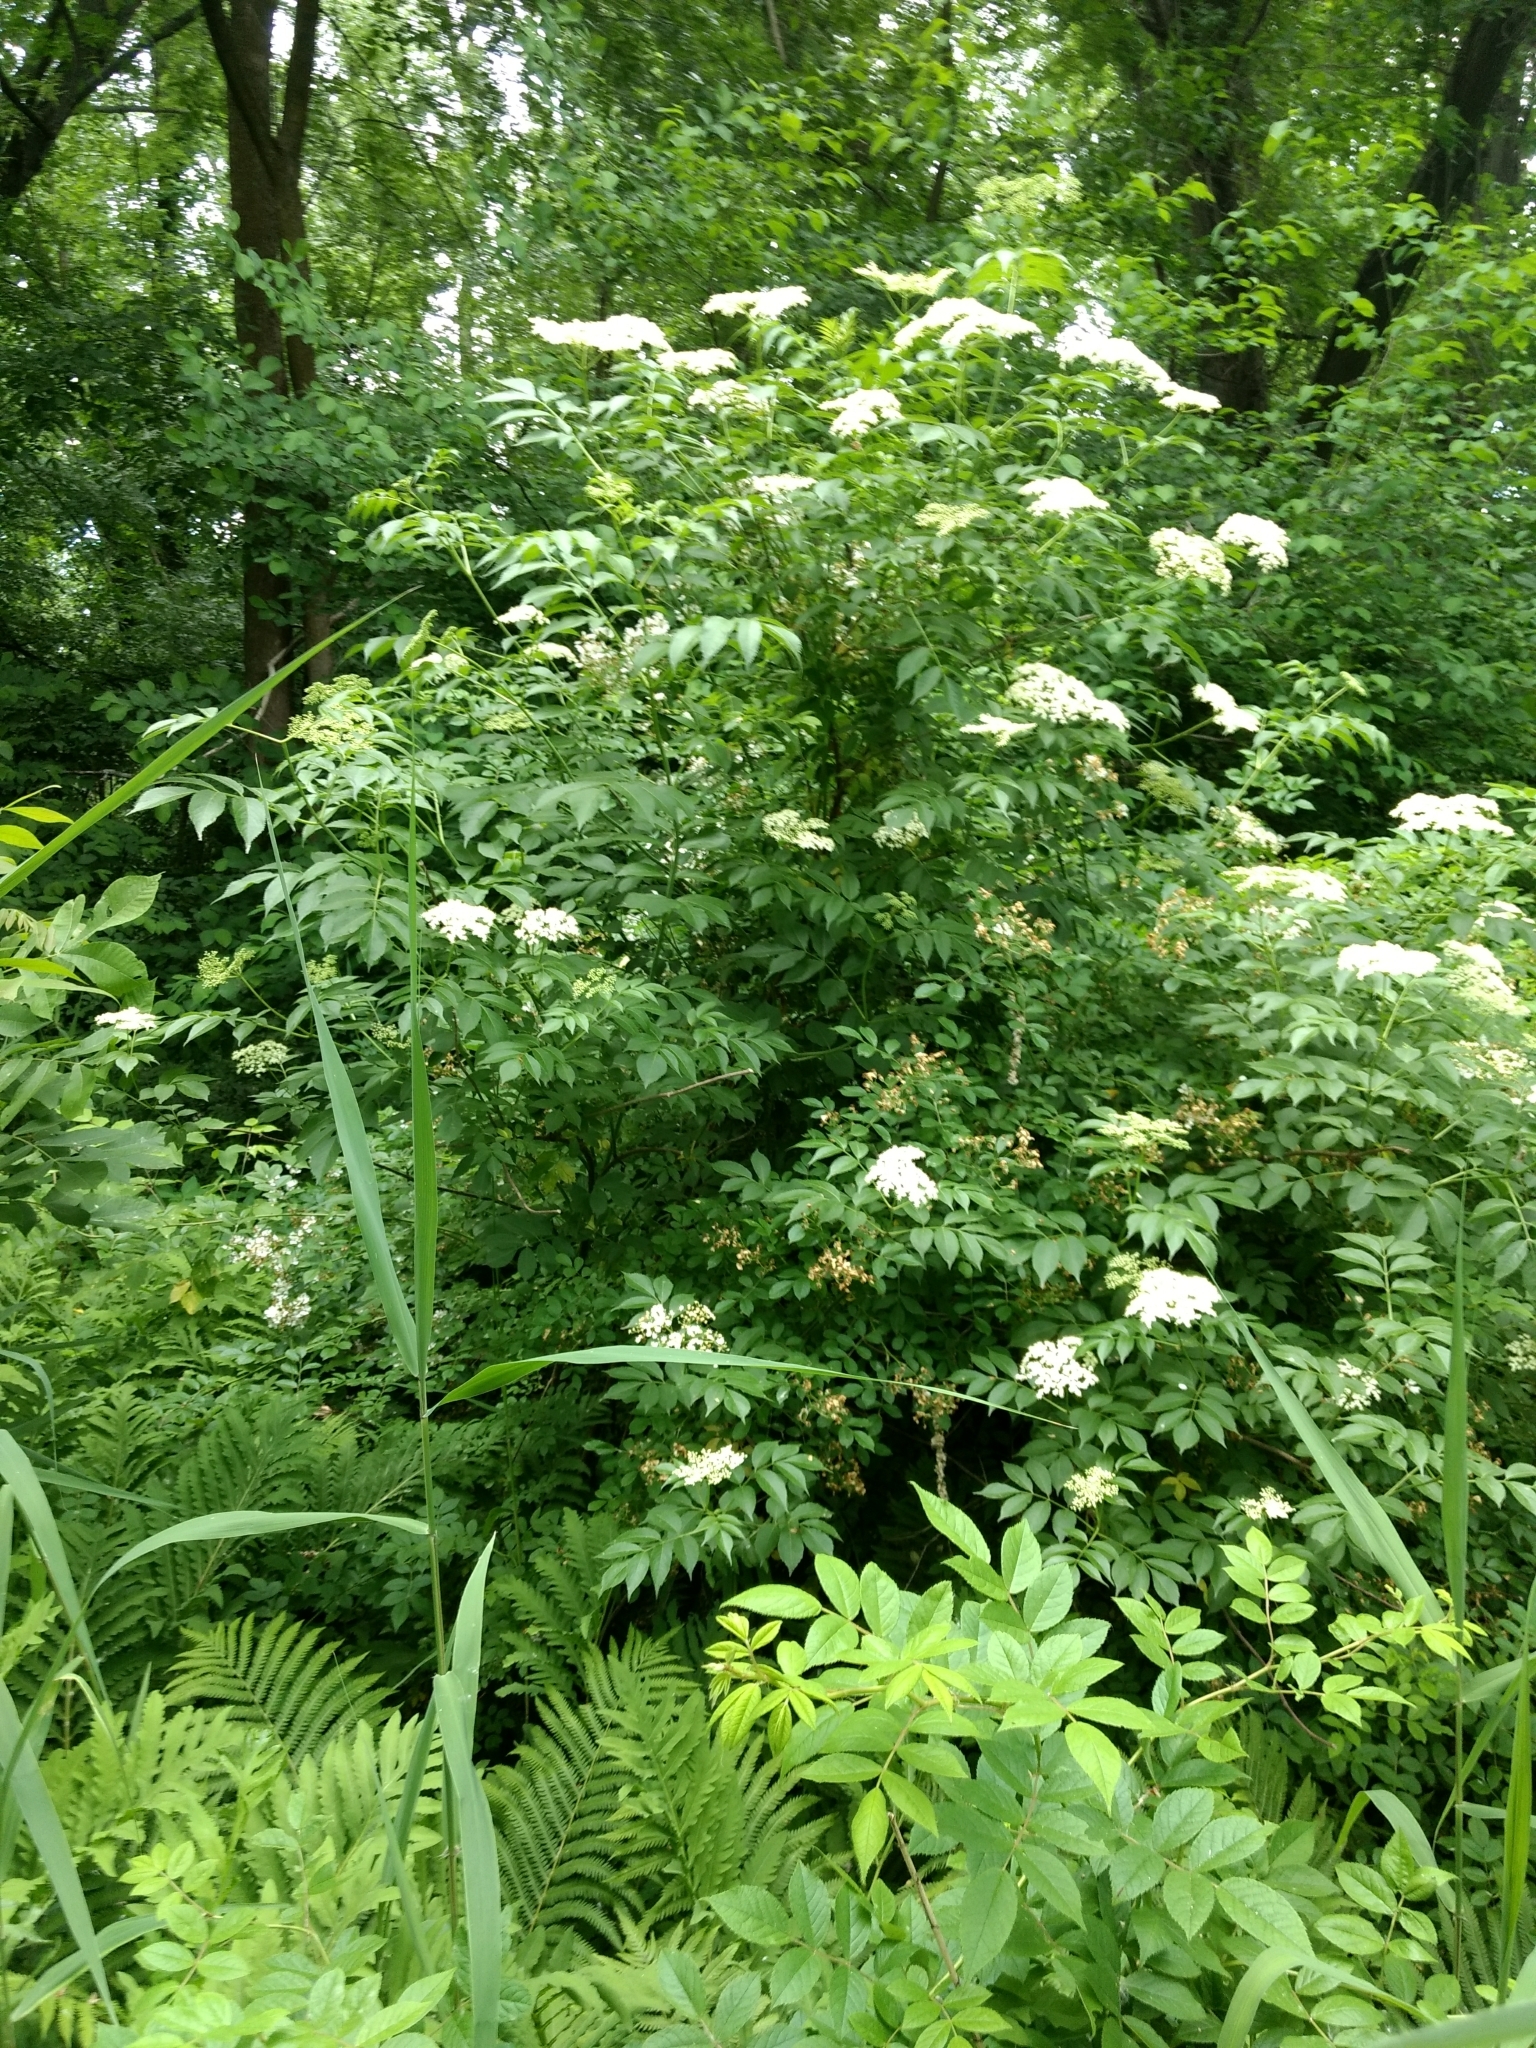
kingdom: Plantae
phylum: Tracheophyta
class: Magnoliopsida
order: Dipsacales
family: Viburnaceae
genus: Sambucus
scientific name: Sambucus canadensis
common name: American elder
